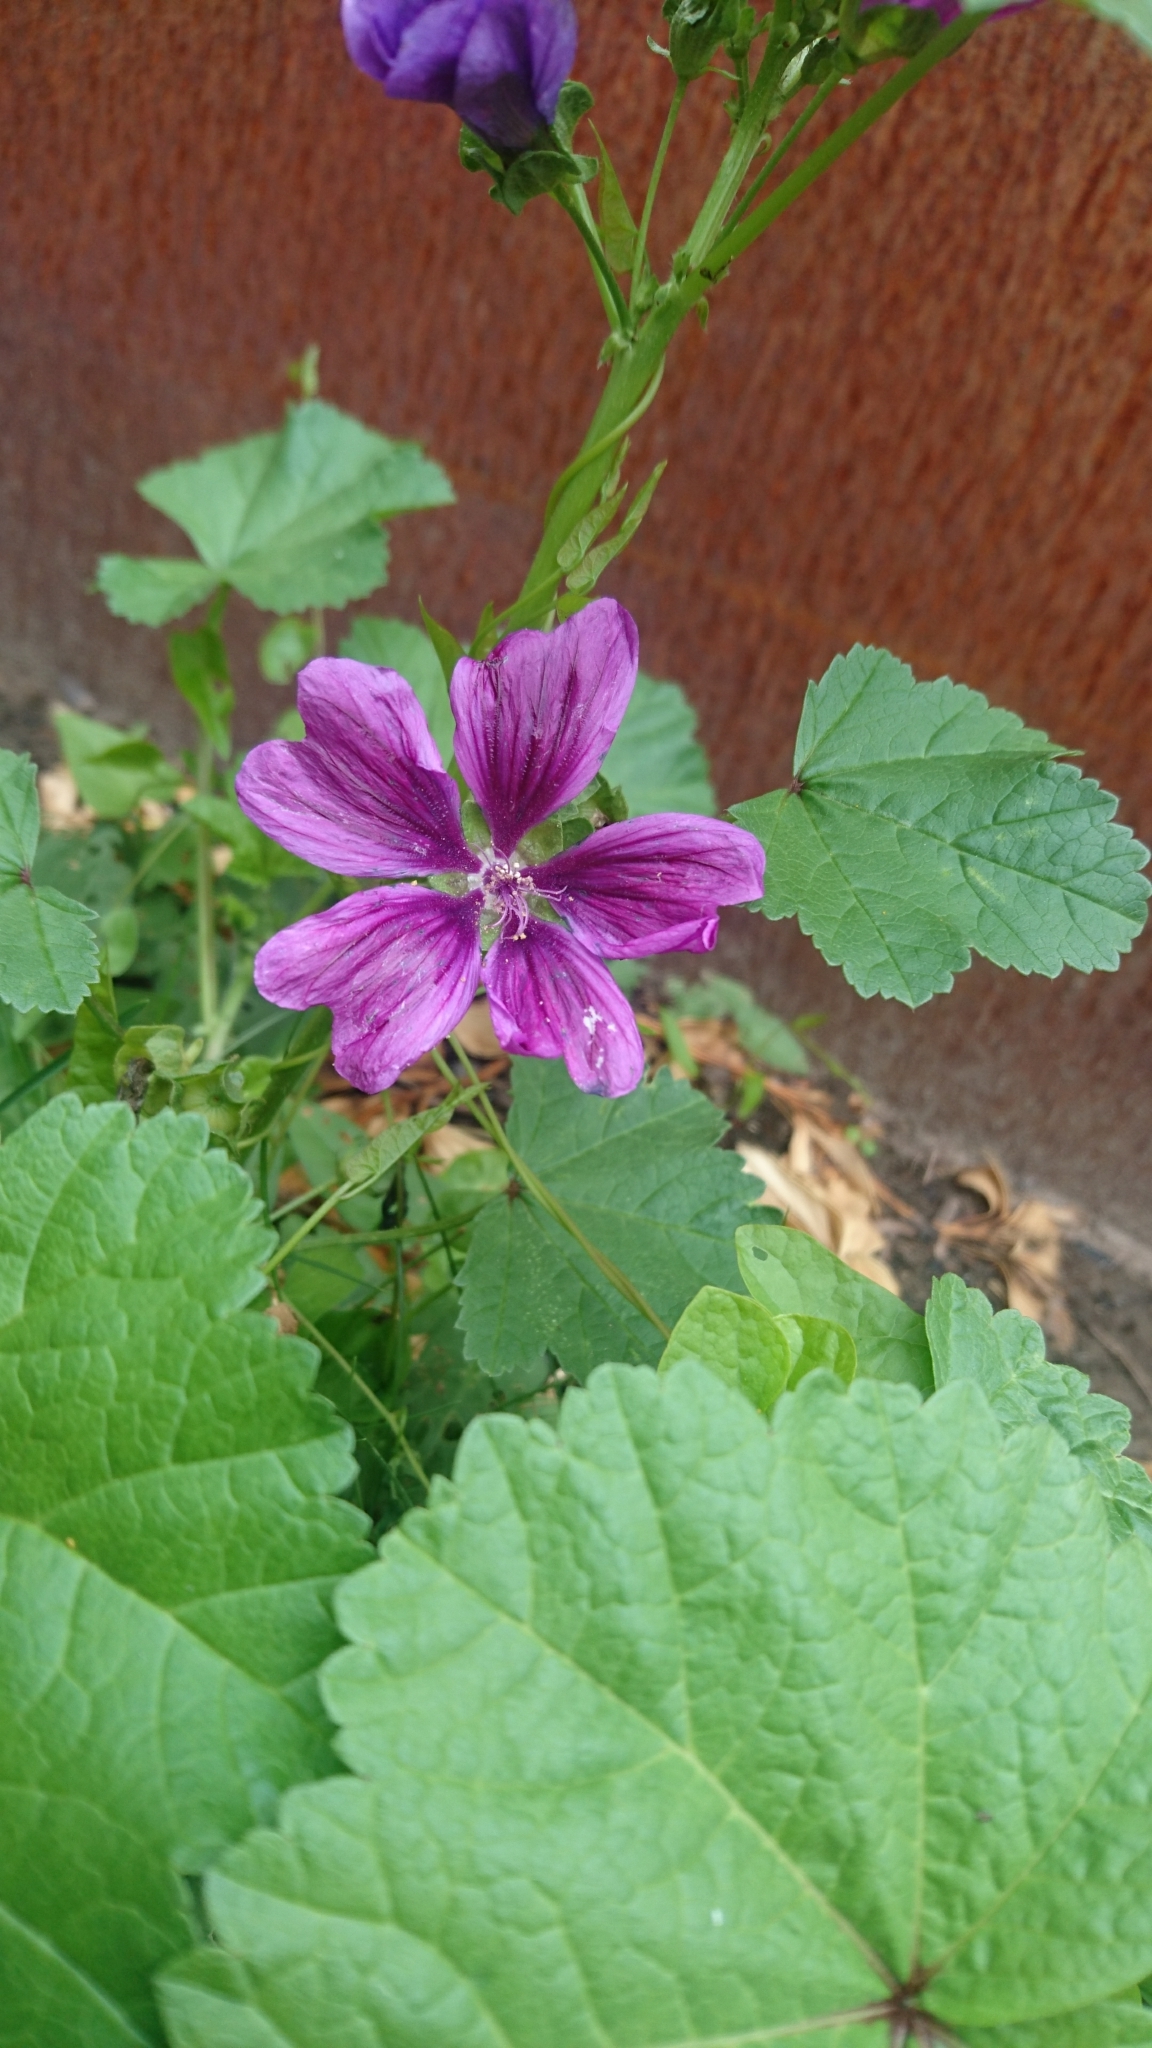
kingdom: Plantae
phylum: Tracheophyta
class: Magnoliopsida
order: Malvales
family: Malvaceae
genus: Malva
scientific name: Malva sylvestris
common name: Common mallow
